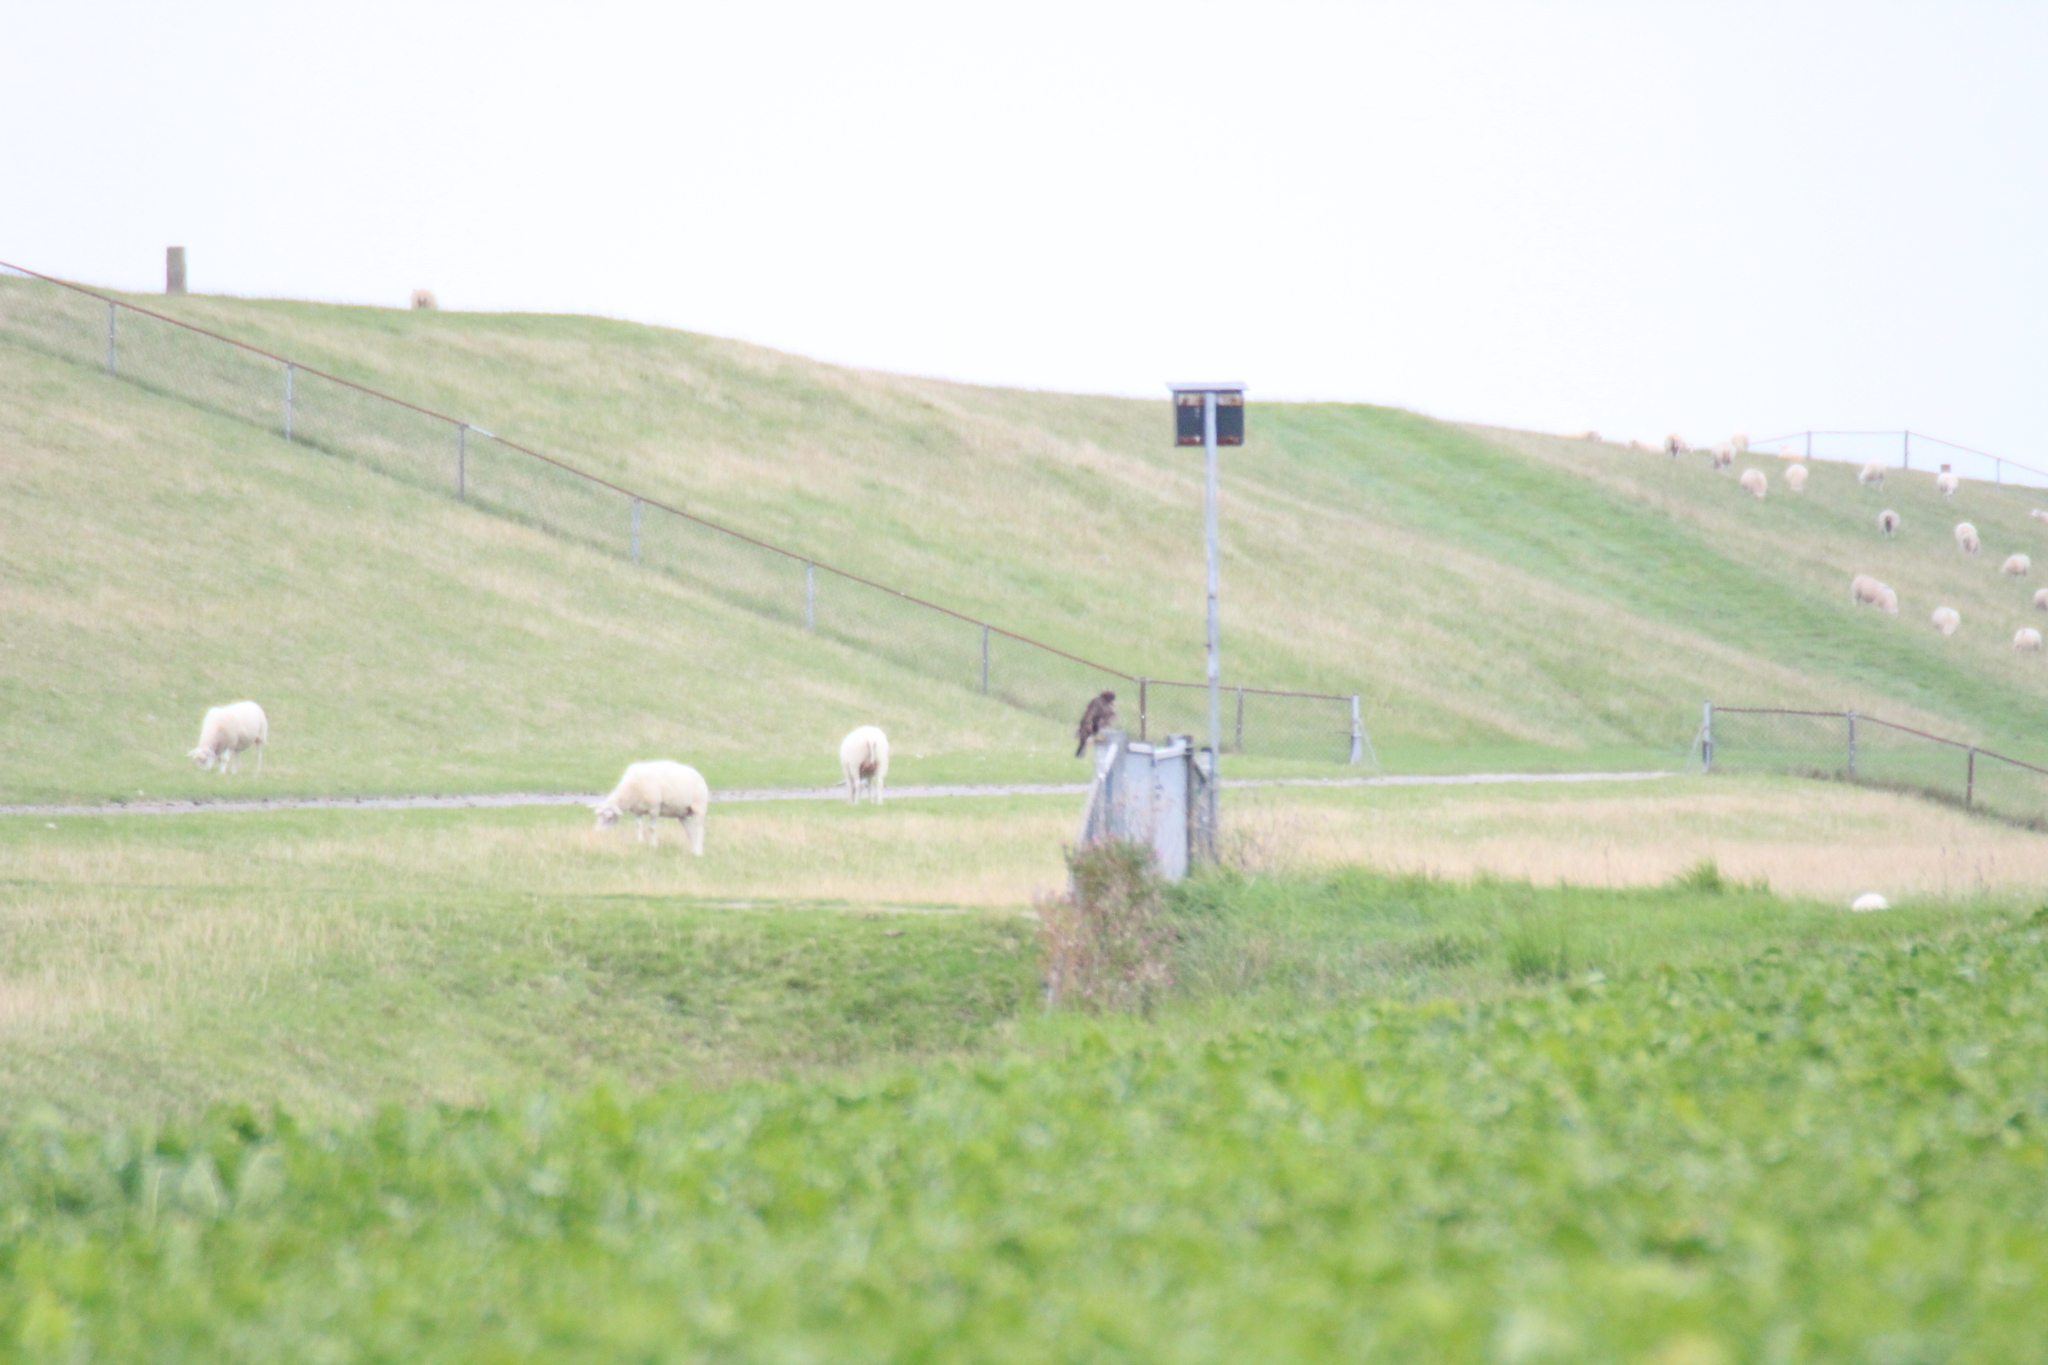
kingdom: Animalia
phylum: Chordata
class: Aves
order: Accipitriformes
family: Accipitridae
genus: Buteo
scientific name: Buteo buteo
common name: Common buzzard
